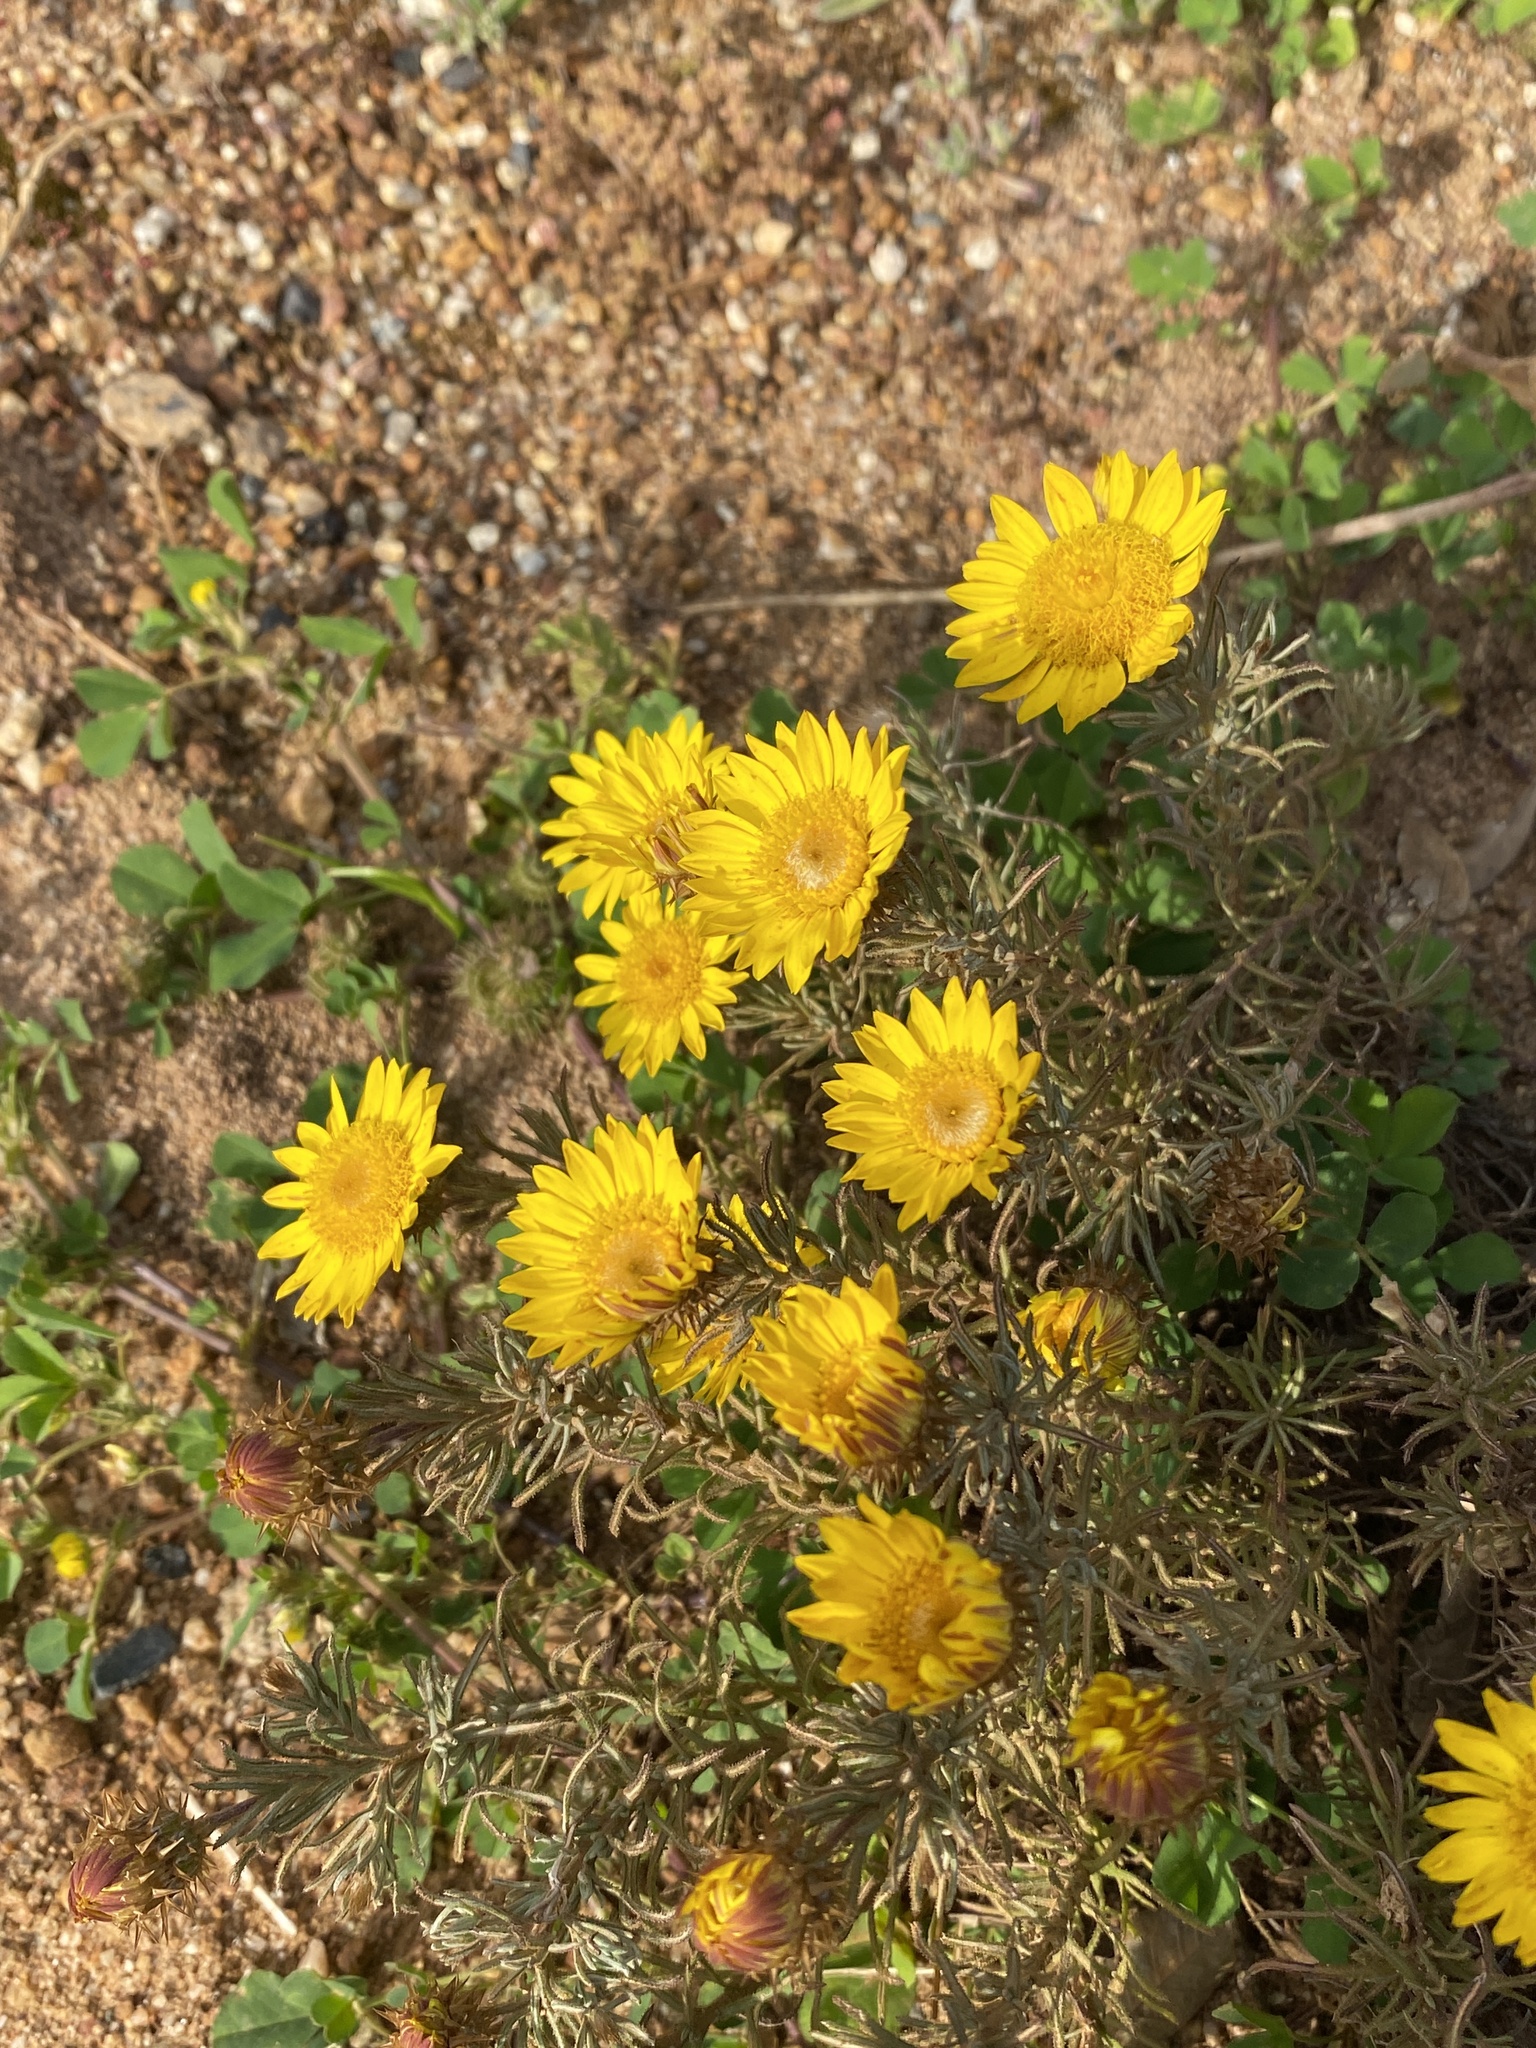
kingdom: Plantae
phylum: Tracheophyta
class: Magnoliopsida
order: Asterales
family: Asteraceae
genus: Nestlera
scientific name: Nestlera biennis
